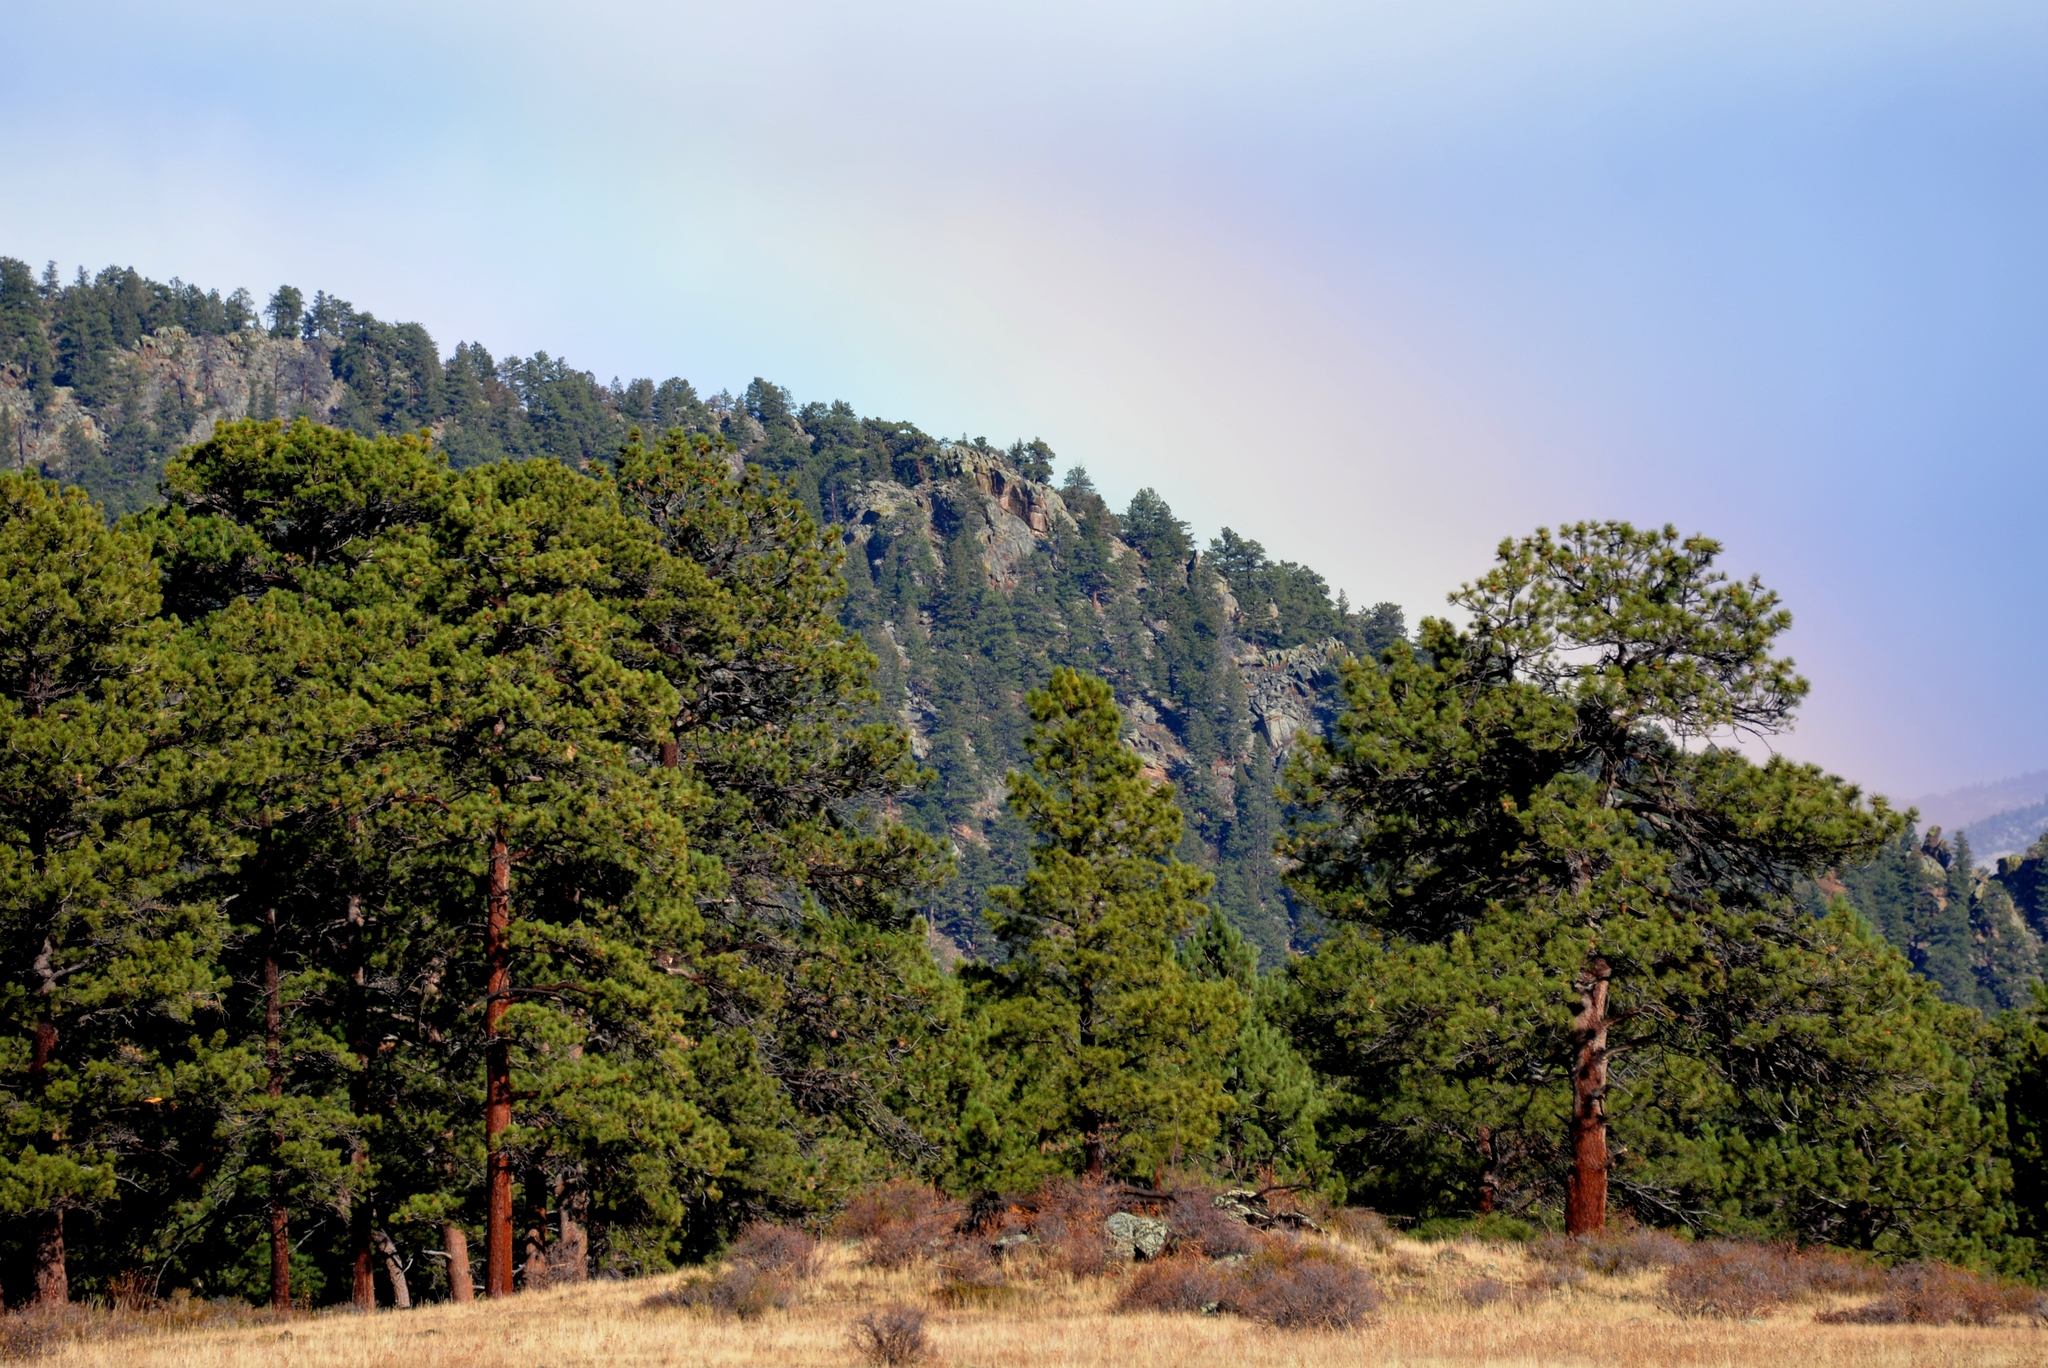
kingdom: Plantae
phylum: Tracheophyta
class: Pinopsida
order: Pinales
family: Pinaceae
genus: Pinus
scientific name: Pinus ponderosa
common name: Western yellow-pine
